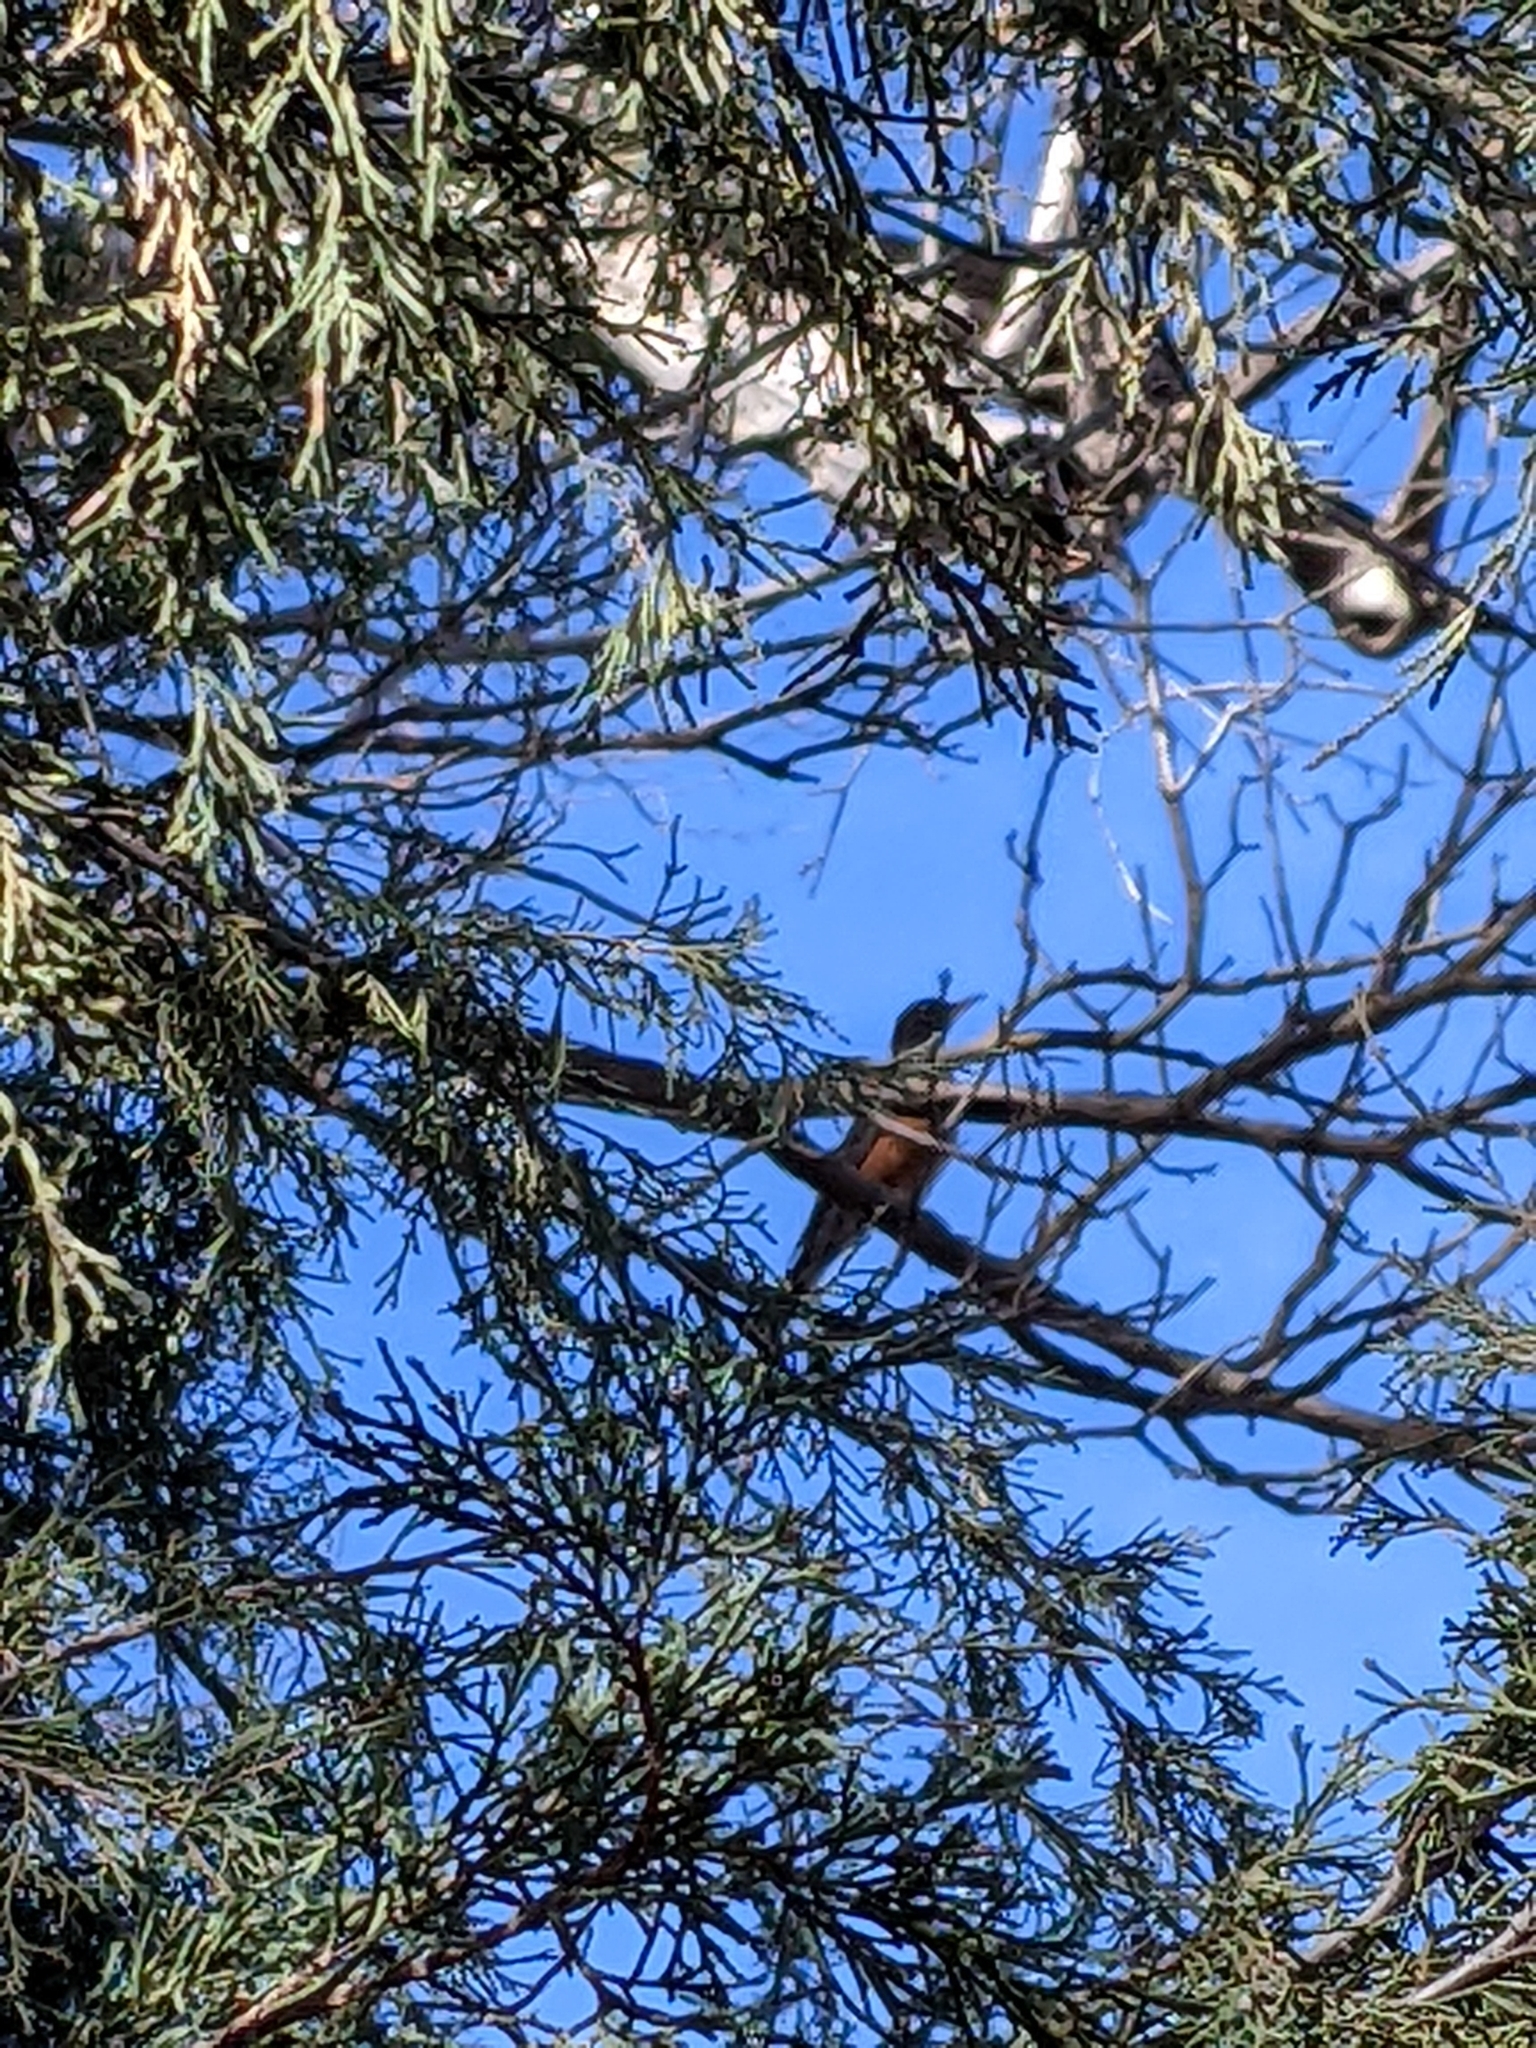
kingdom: Animalia
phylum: Chordata
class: Aves
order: Passeriformes
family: Turdidae
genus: Turdus
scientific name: Turdus migratorius
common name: American robin
